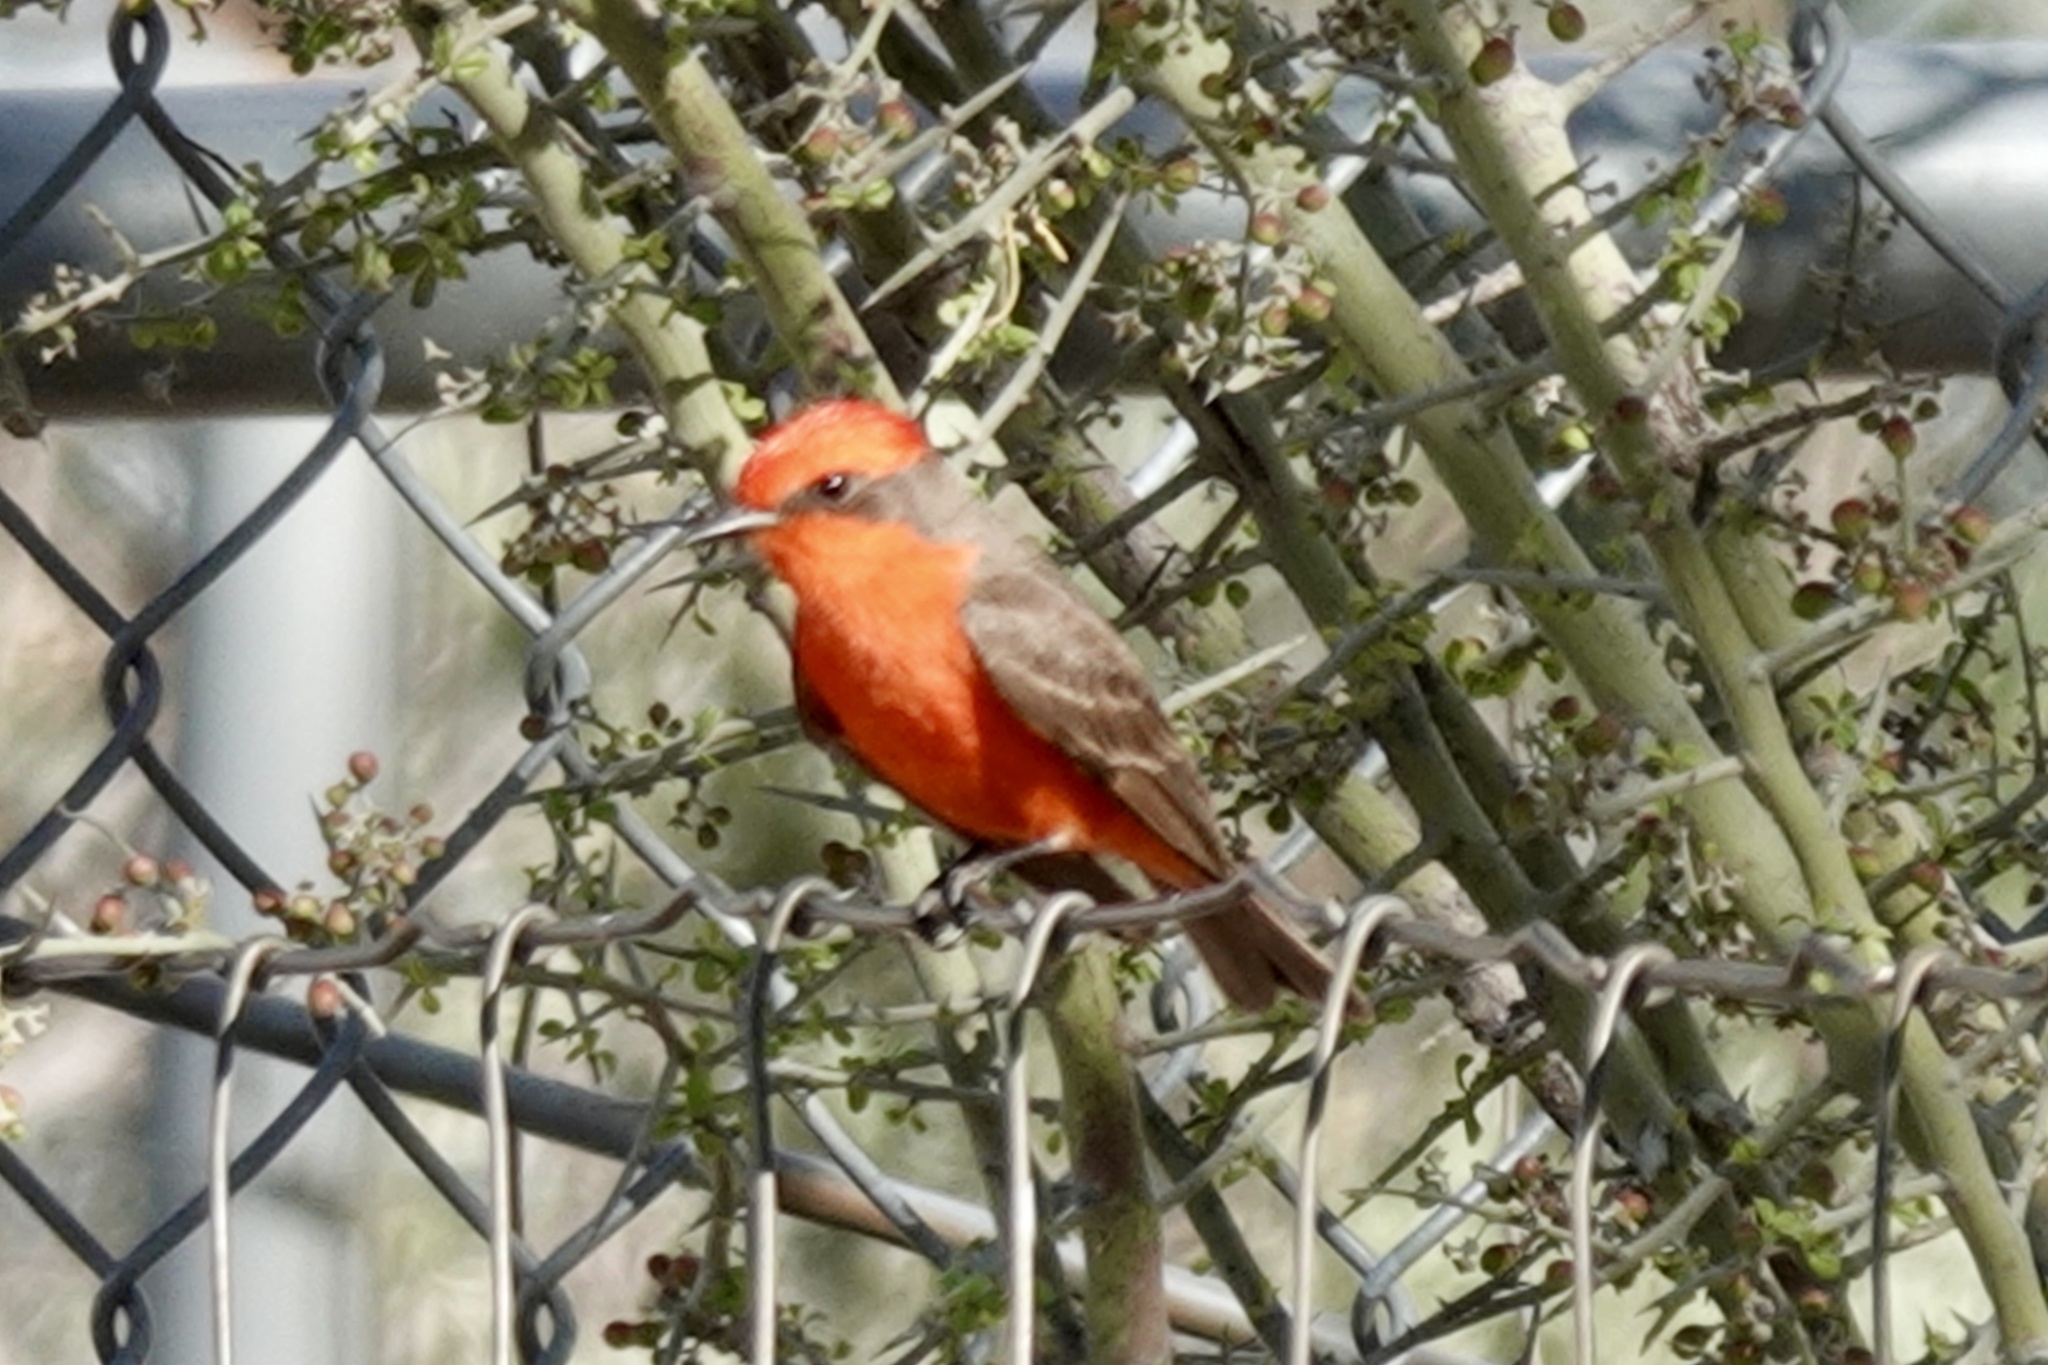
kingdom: Animalia
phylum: Chordata
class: Aves
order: Passeriformes
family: Tyrannidae
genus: Pyrocephalus
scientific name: Pyrocephalus rubinus
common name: Vermilion flycatcher
